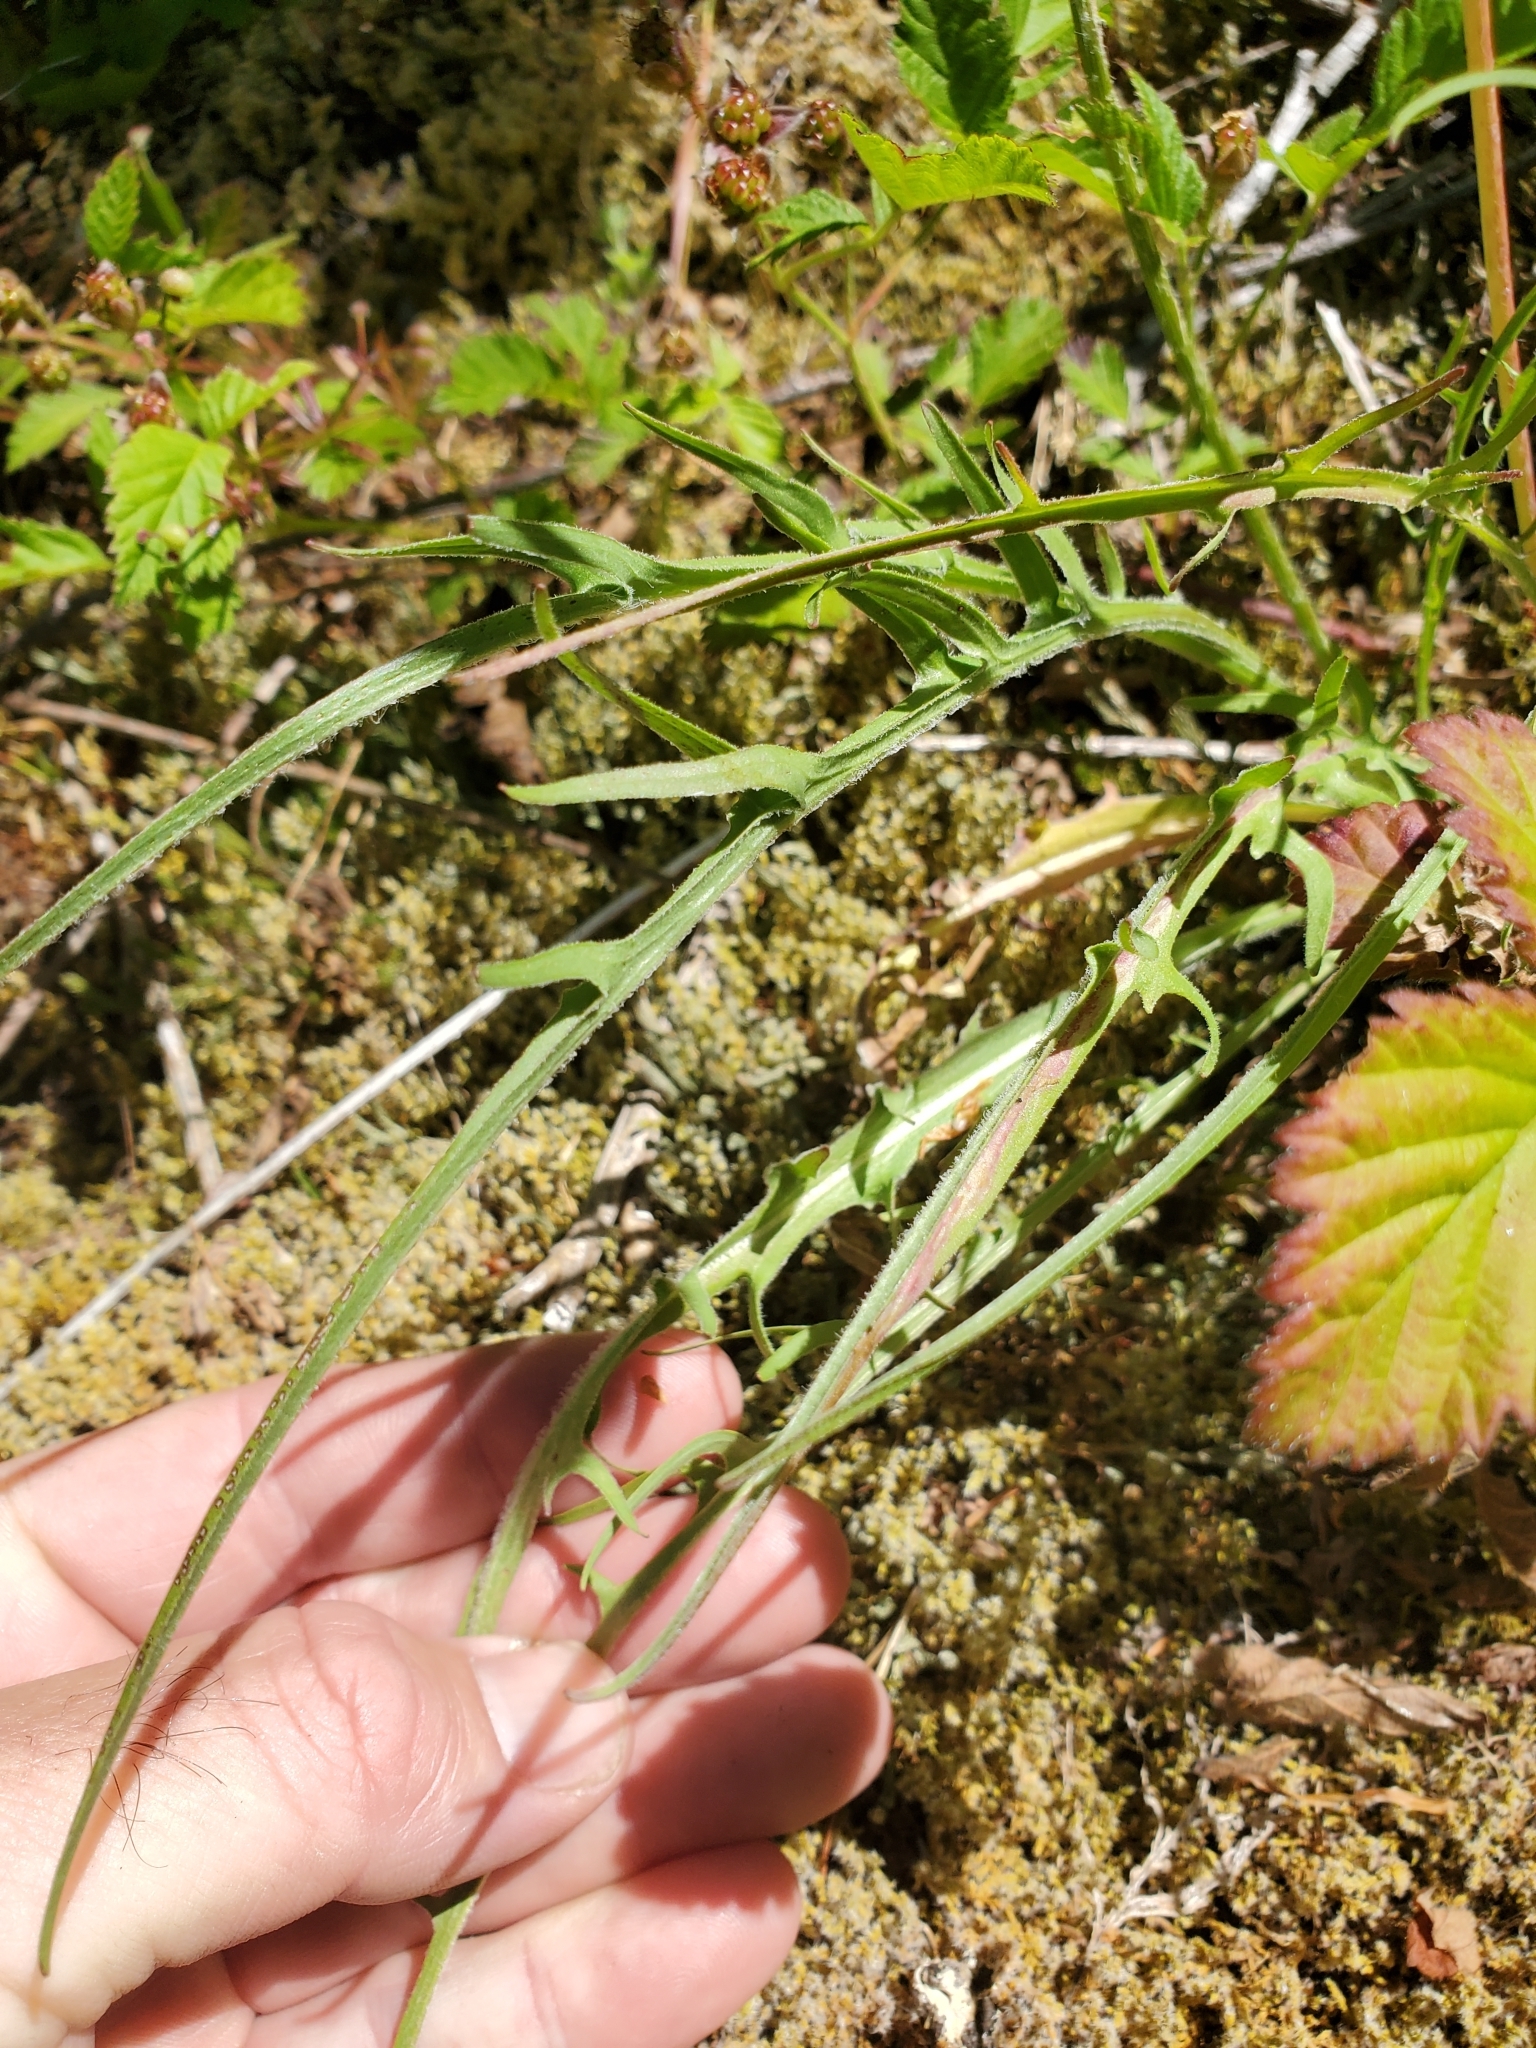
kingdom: Plantae
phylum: Tracheophyta
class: Magnoliopsida
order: Asterales
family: Asteraceae
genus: Agoseris
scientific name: Agoseris grandiflora
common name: Grassland agoseris
